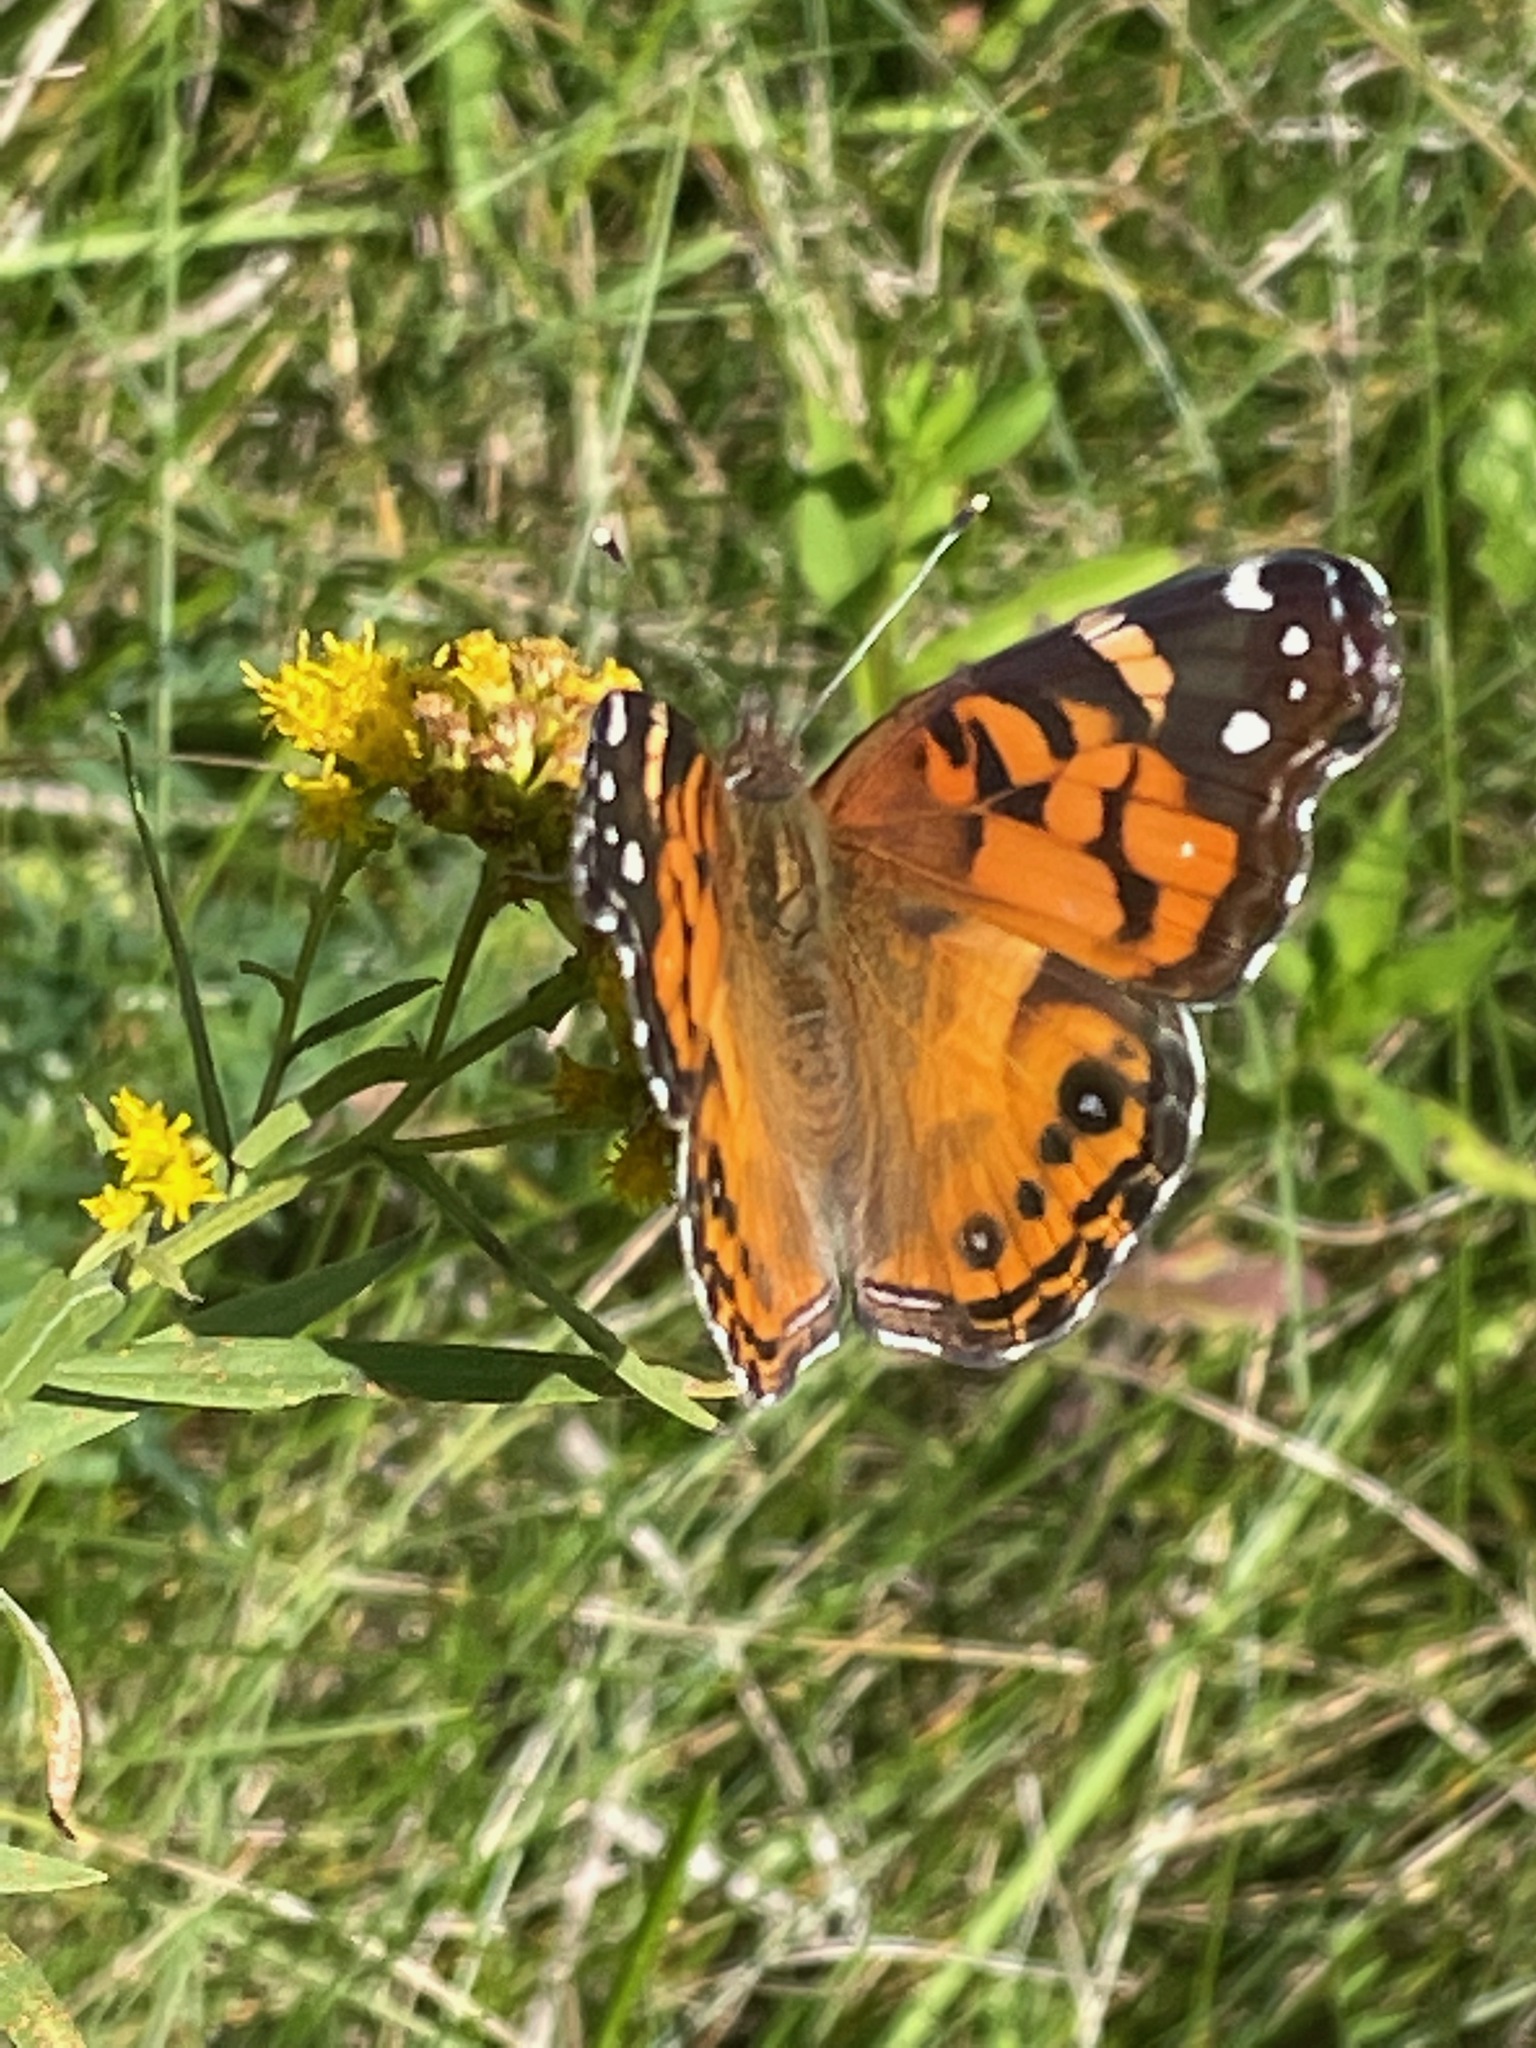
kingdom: Animalia
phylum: Arthropoda
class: Insecta
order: Lepidoptera
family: Nymphalidae
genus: Vanessa
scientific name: Vanessa virginiensis
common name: American lady
